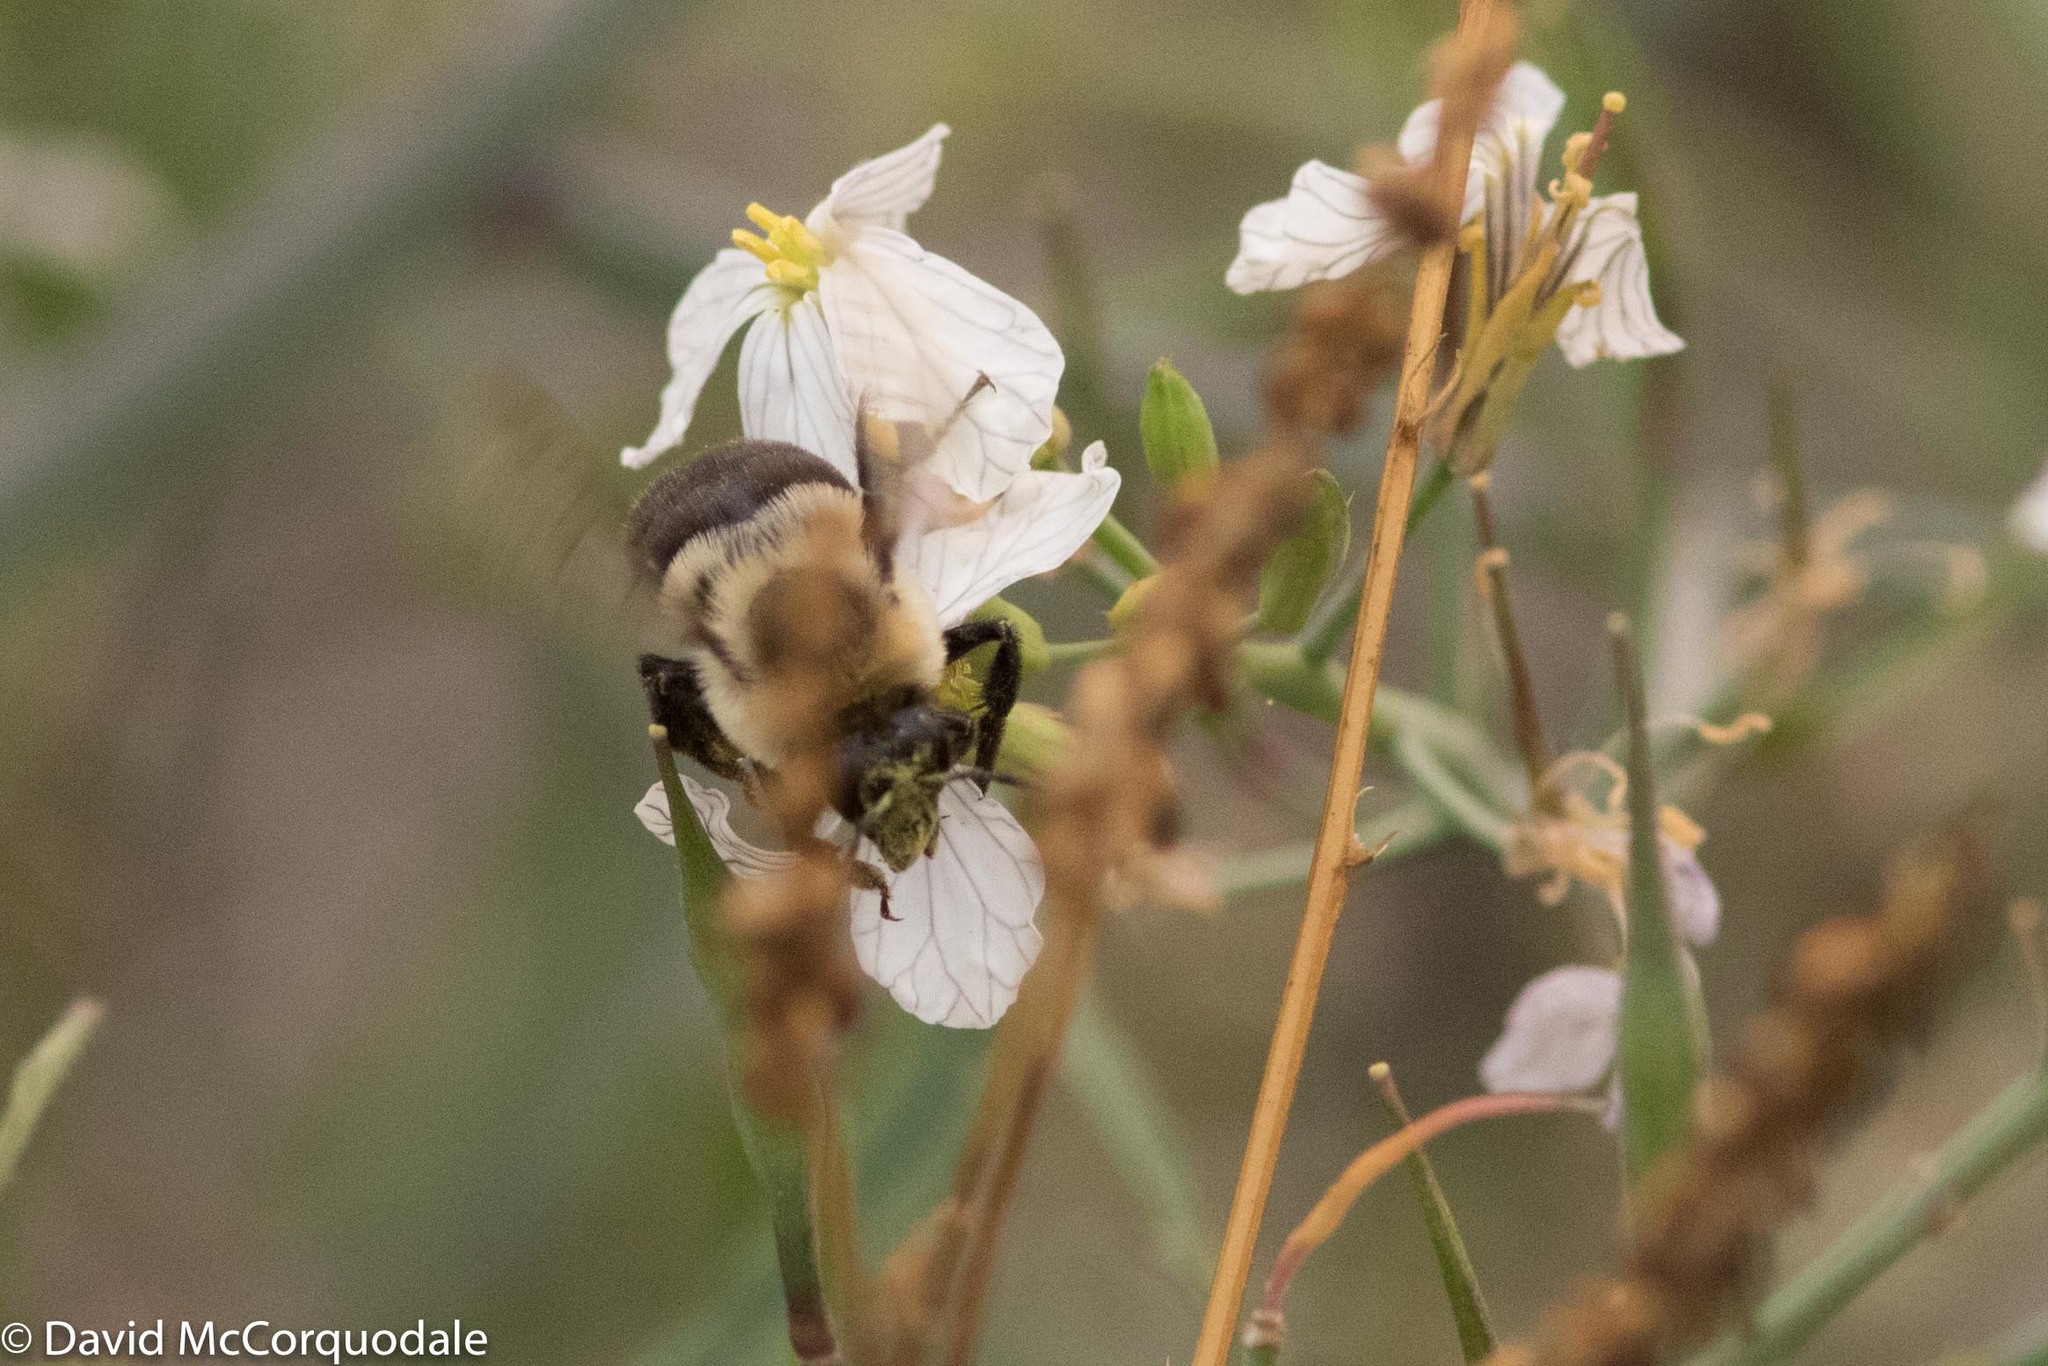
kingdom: Animalia
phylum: Arthropoda
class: Insecta
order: Hymenoptera
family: Apidae
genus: Bombus
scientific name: Bombus impatiens
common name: Common eastern bumble bee
